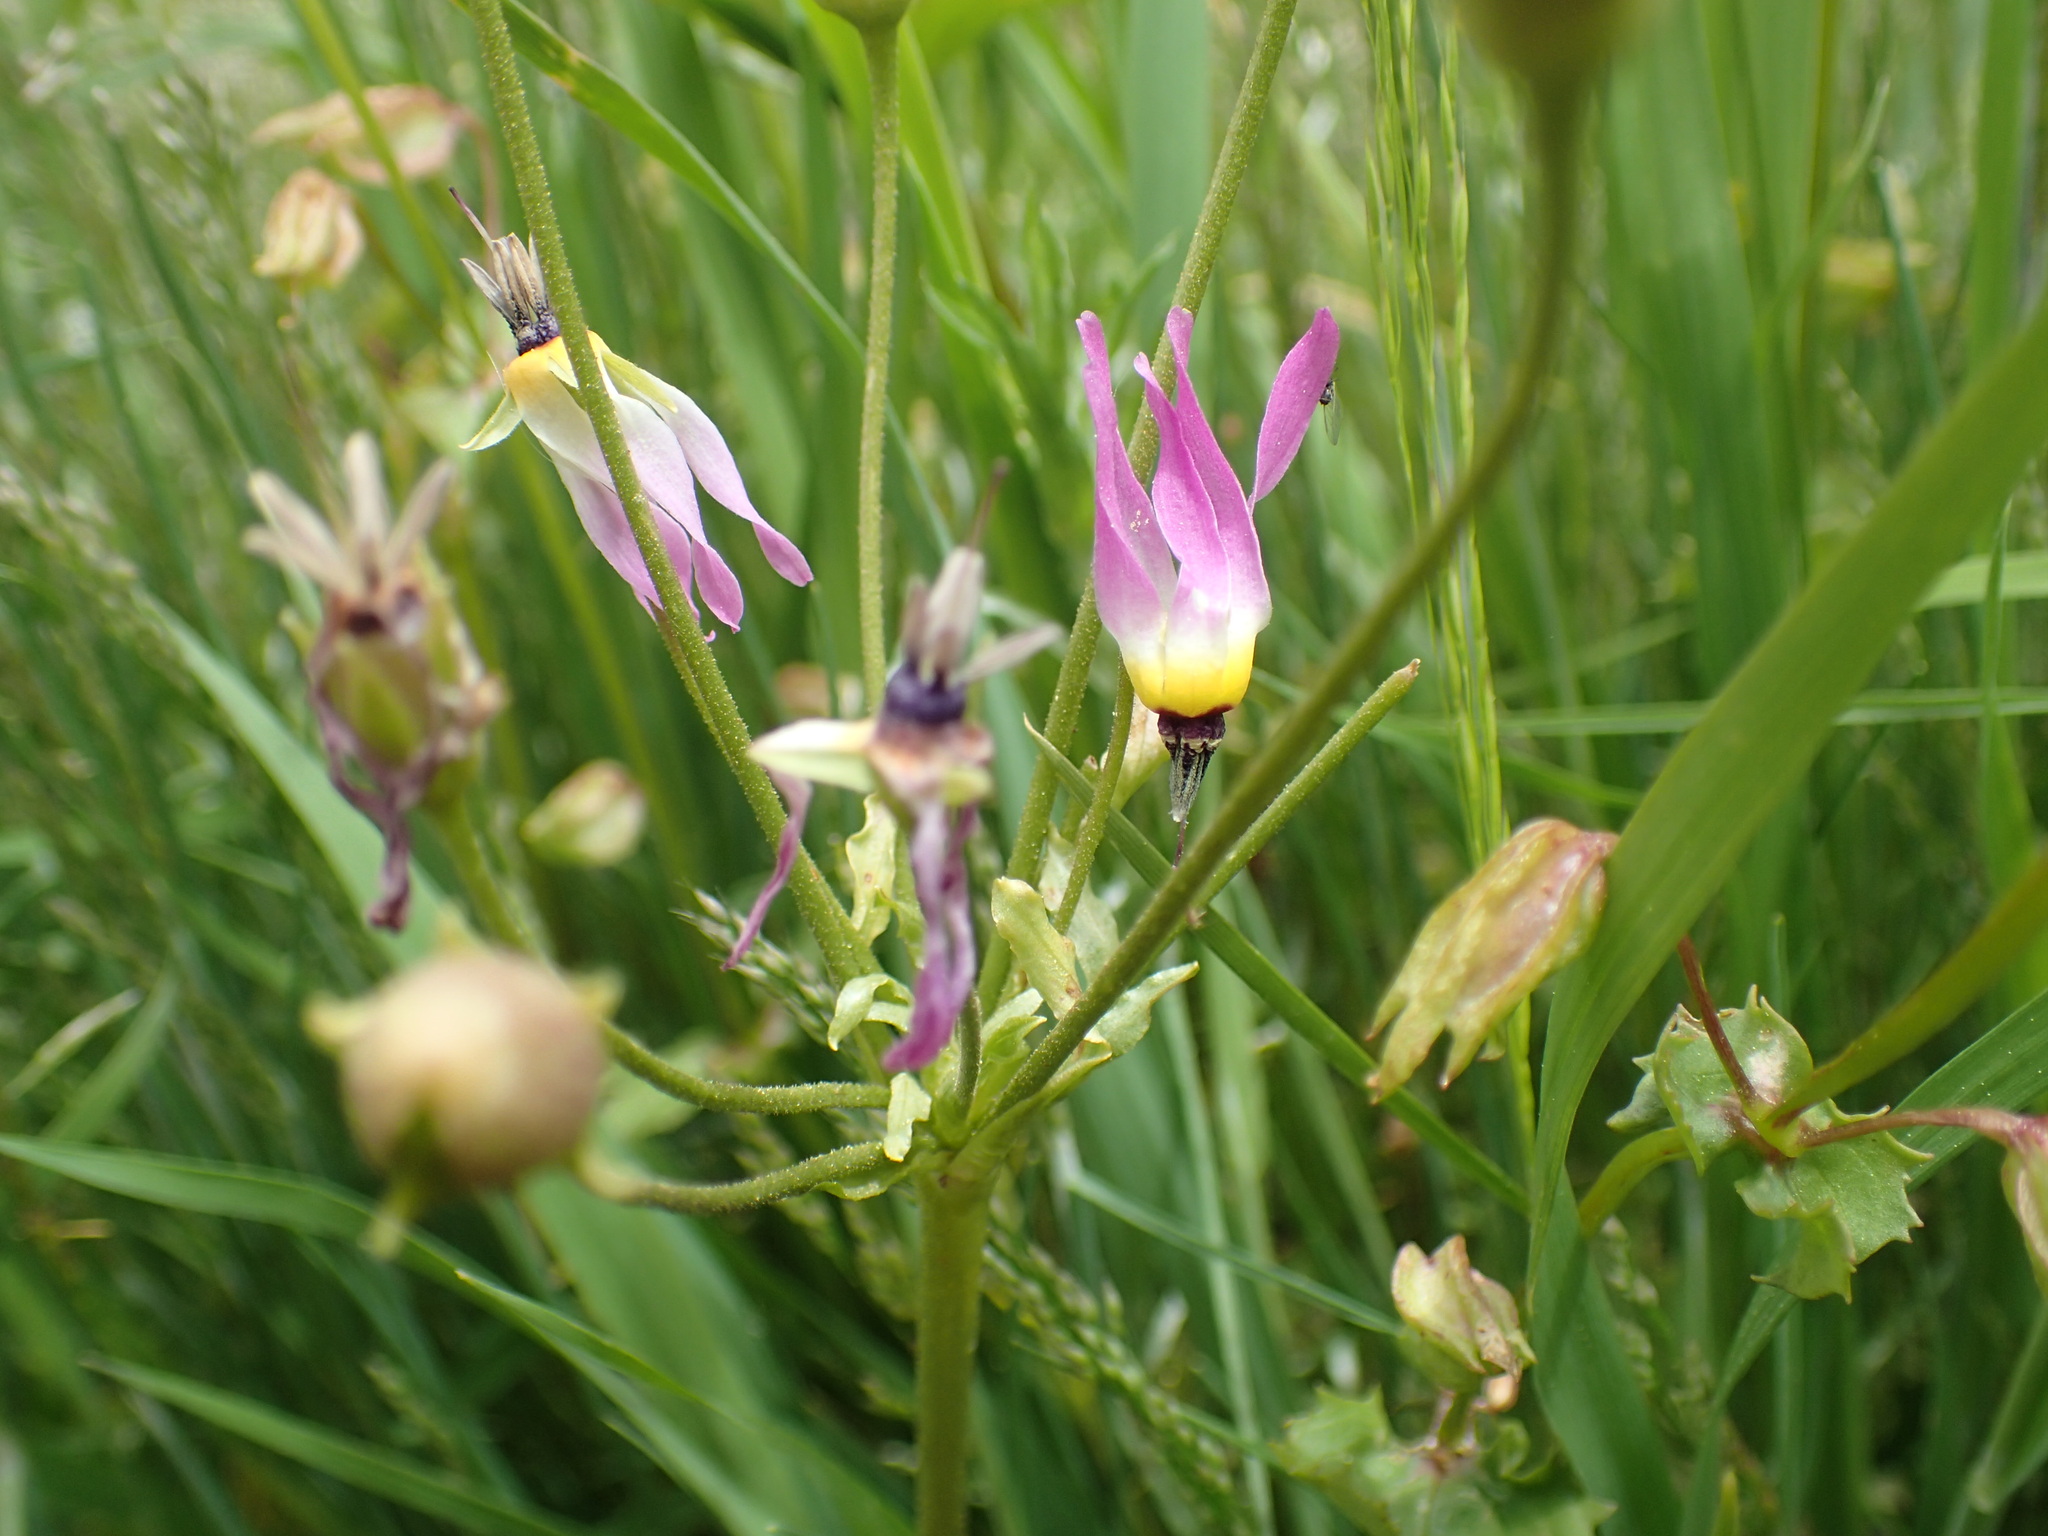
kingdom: Plantae
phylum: Tracheophyta
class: Magnoliopsida
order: Ericales
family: Primulaceae
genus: Dodecatheon
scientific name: Dodecatheon clevelandii
